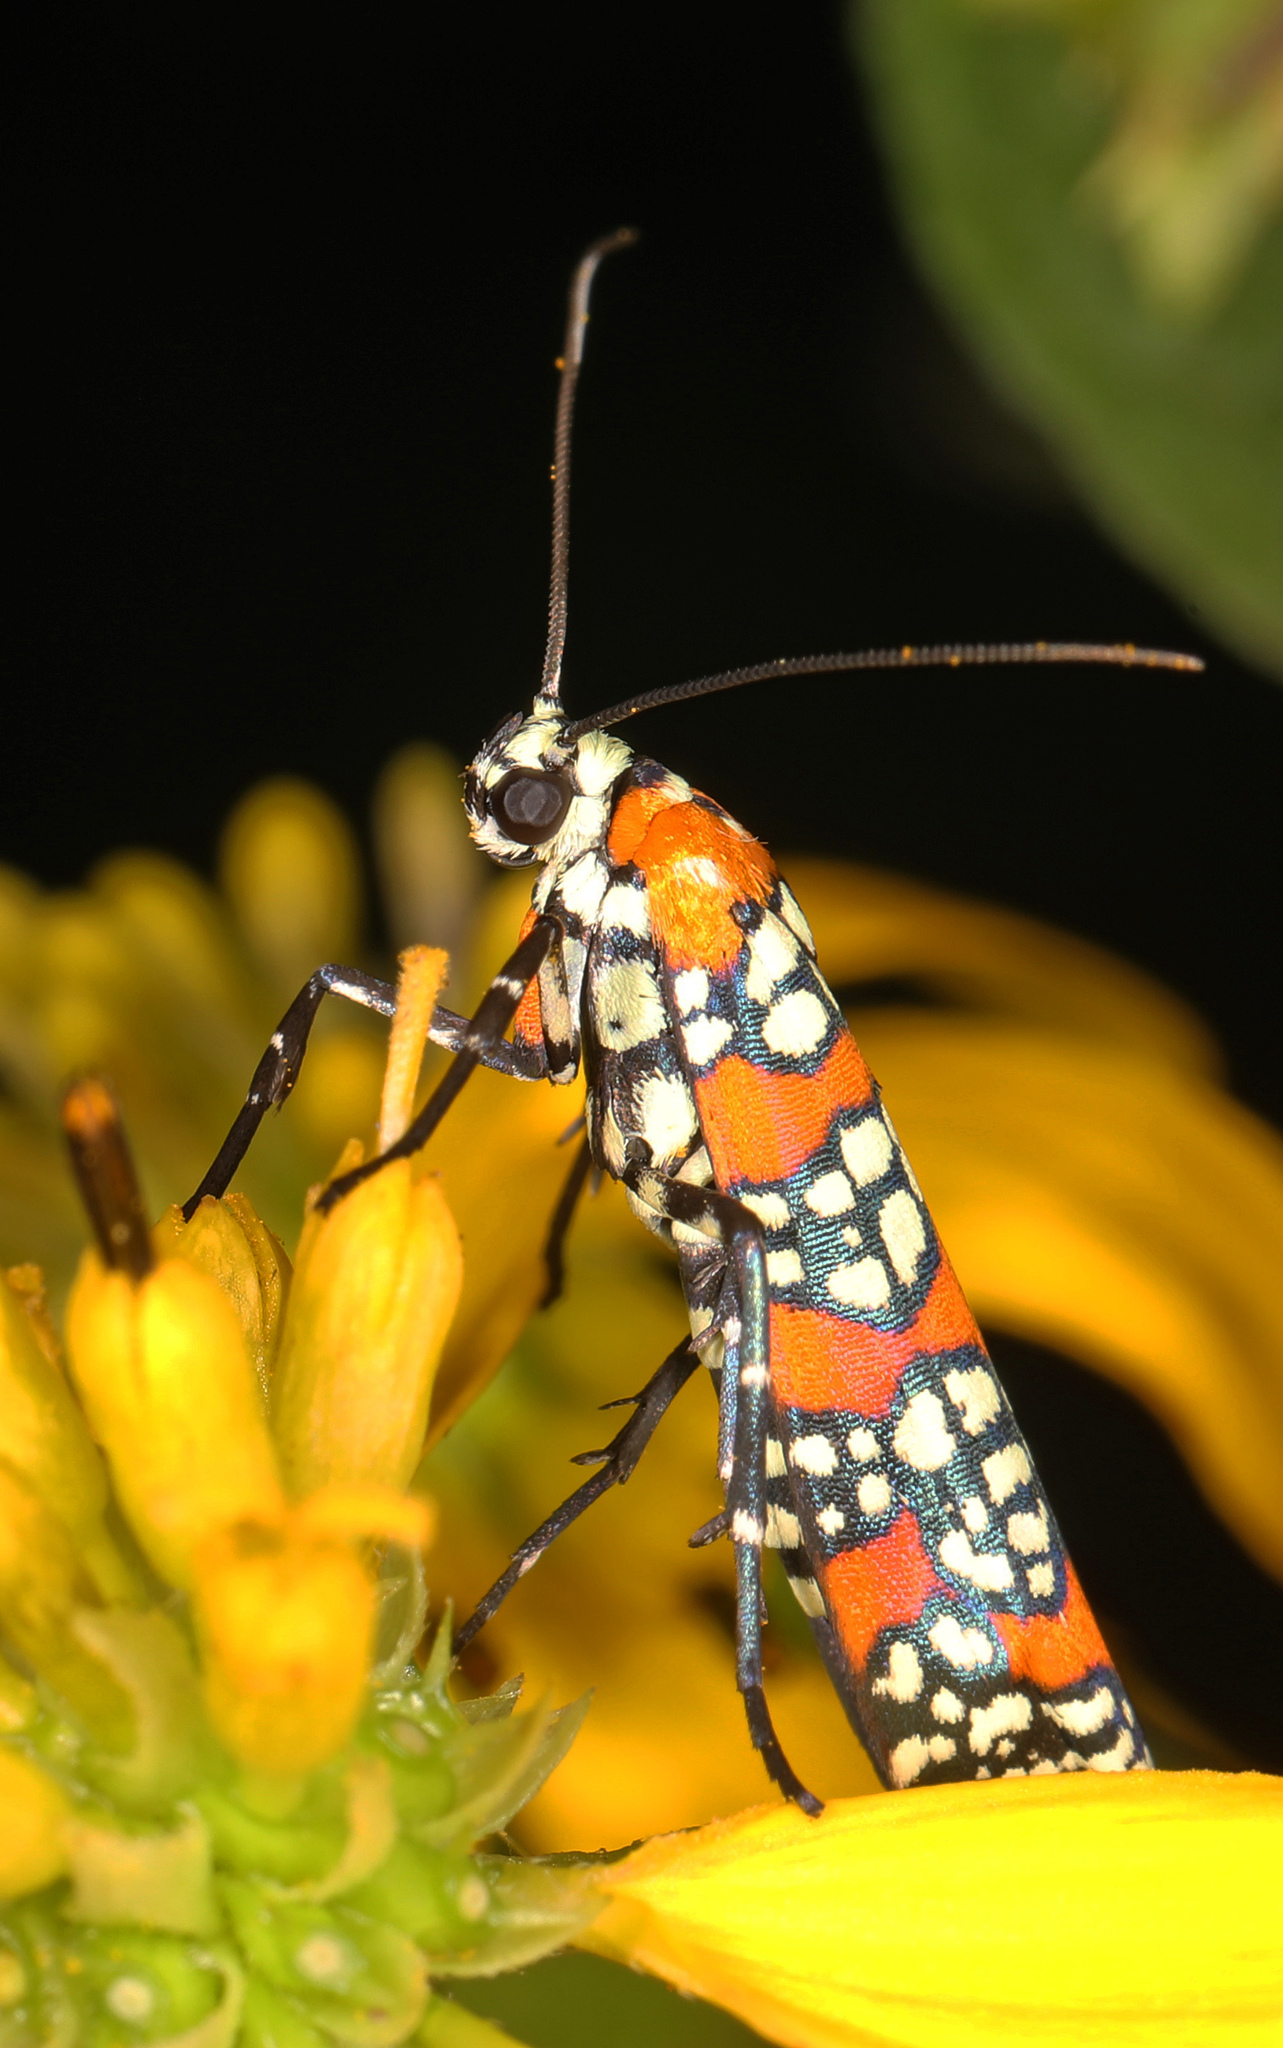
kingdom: Animalia
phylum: Arthropoda
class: Insecta
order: Lepidoptera
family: Attevidae
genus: Atteva
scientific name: Atteva punctella
